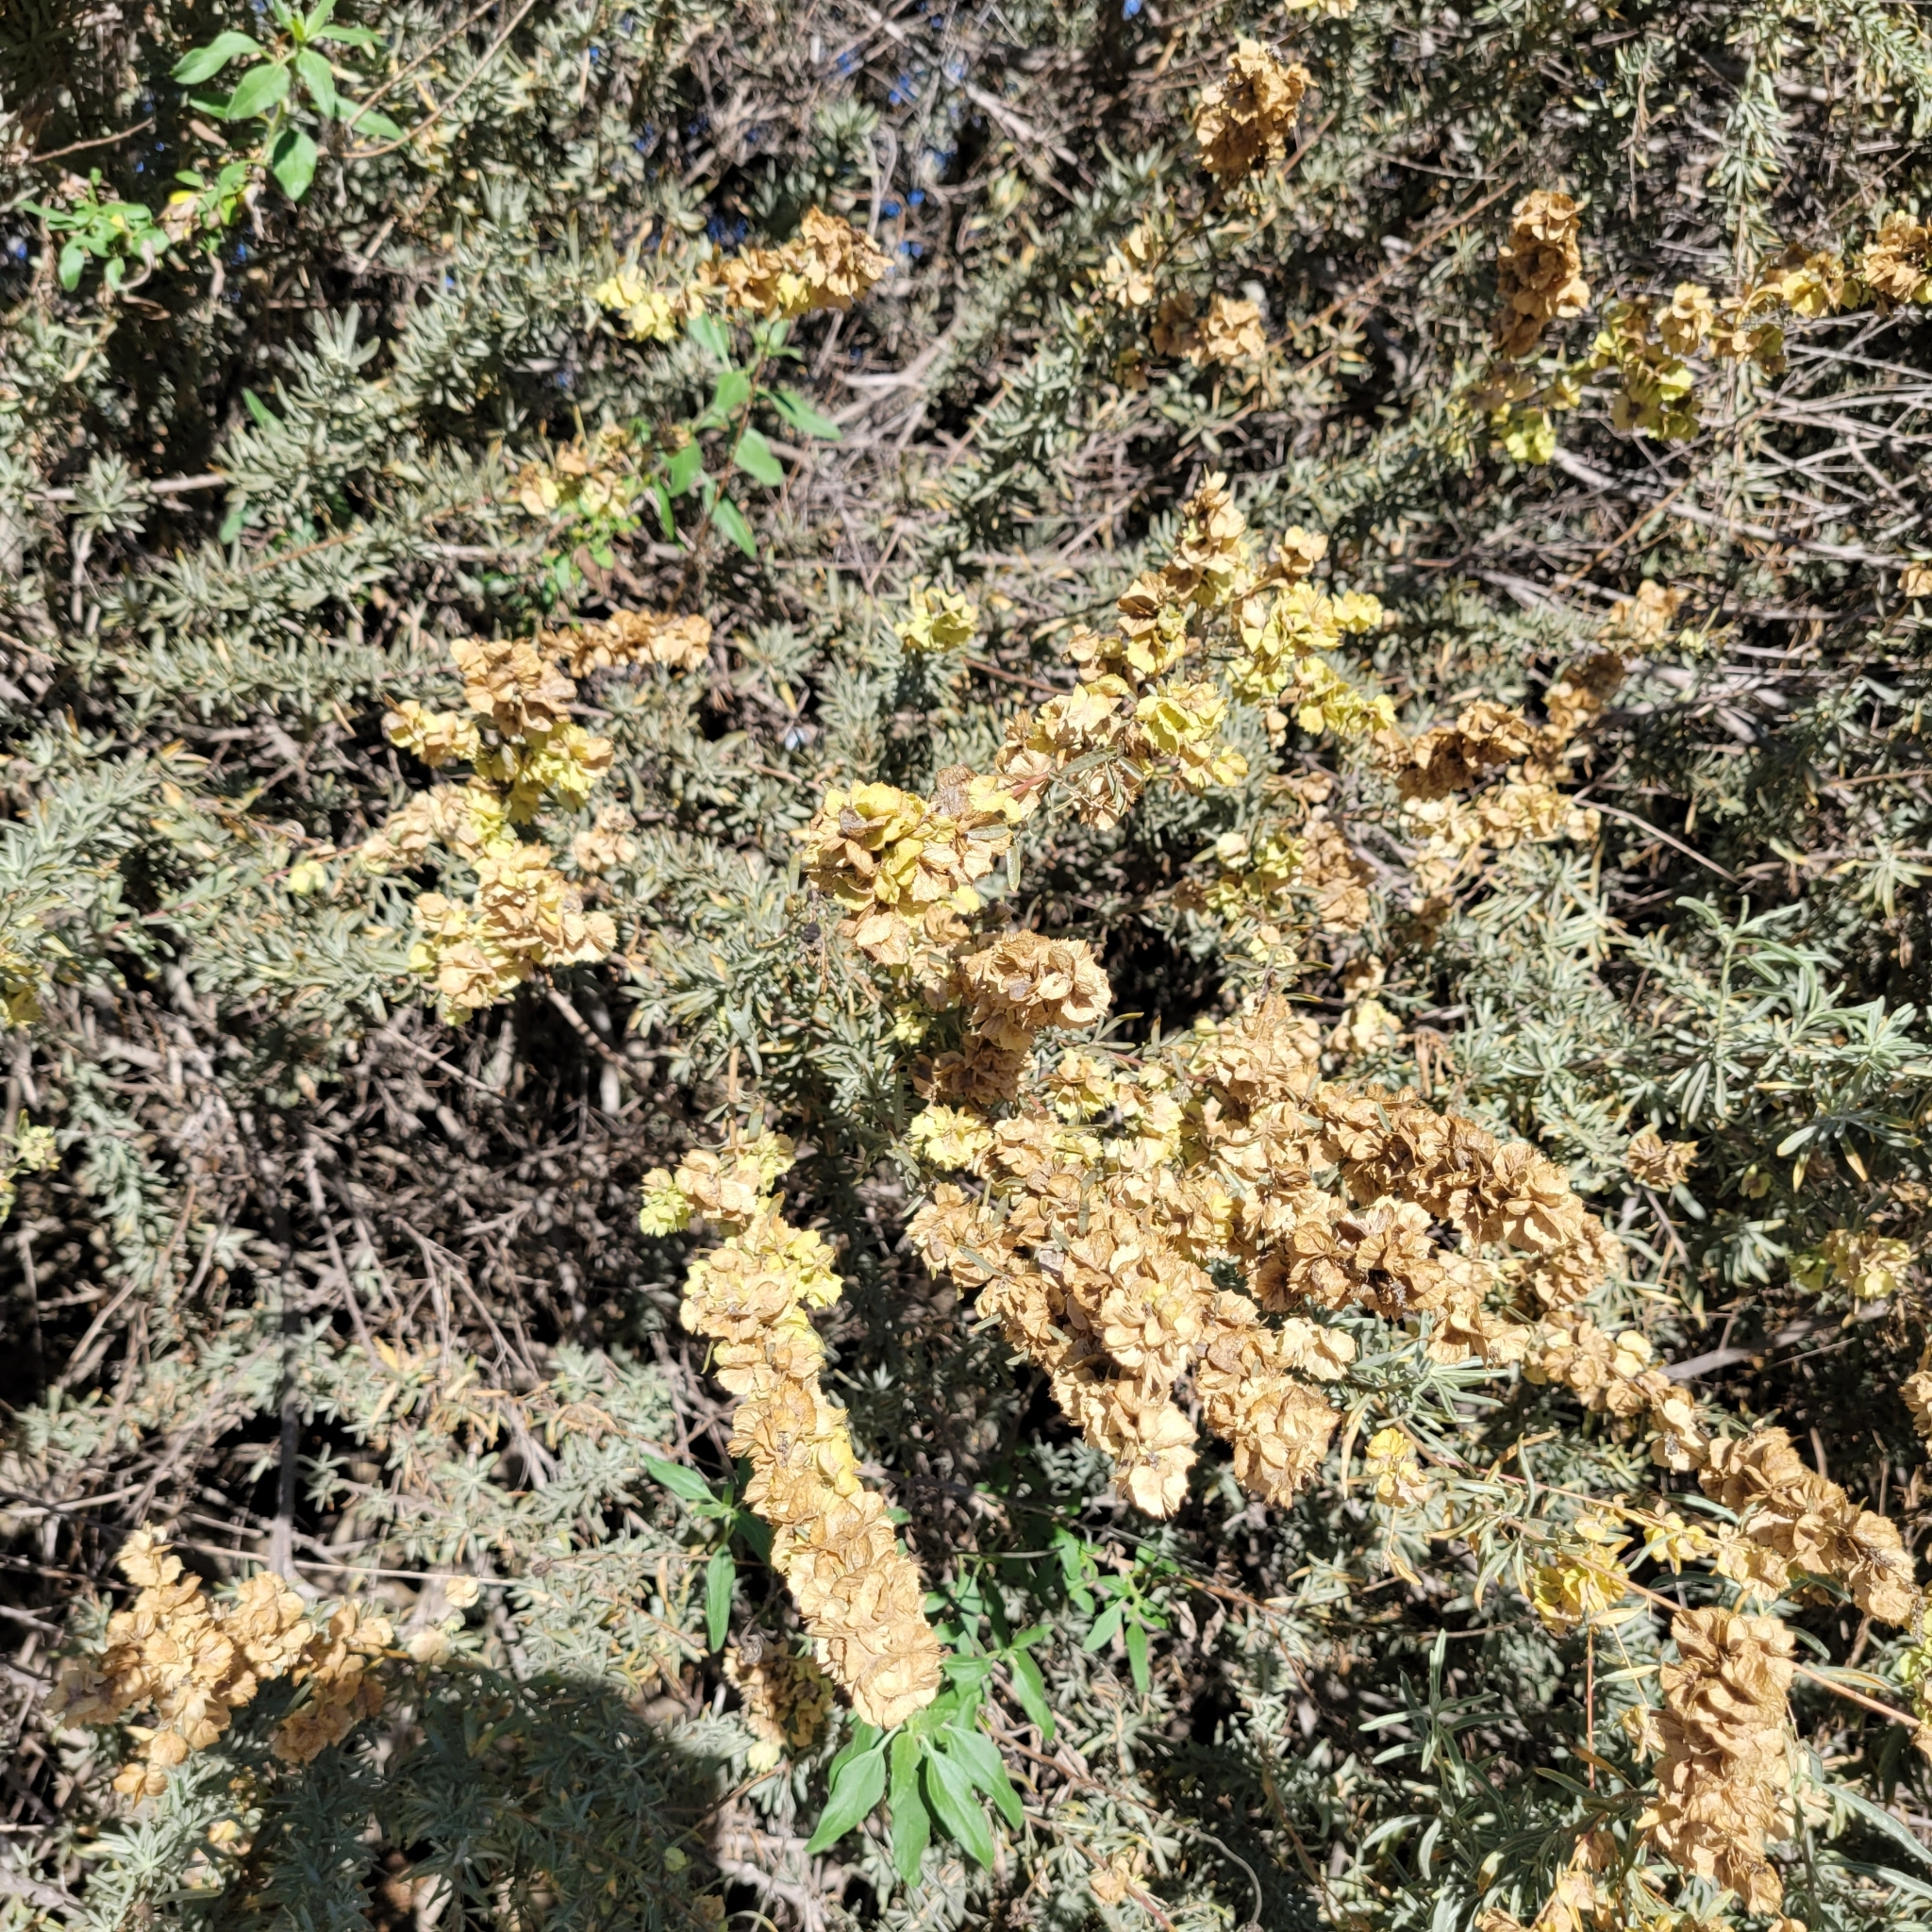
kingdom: Plantae
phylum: Tracheophyta
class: Magnoliopsida
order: Caryophyllales
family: Amaranthaceae
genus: Atriplex
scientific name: Atriplex canescens
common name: Four-wing saltbush
